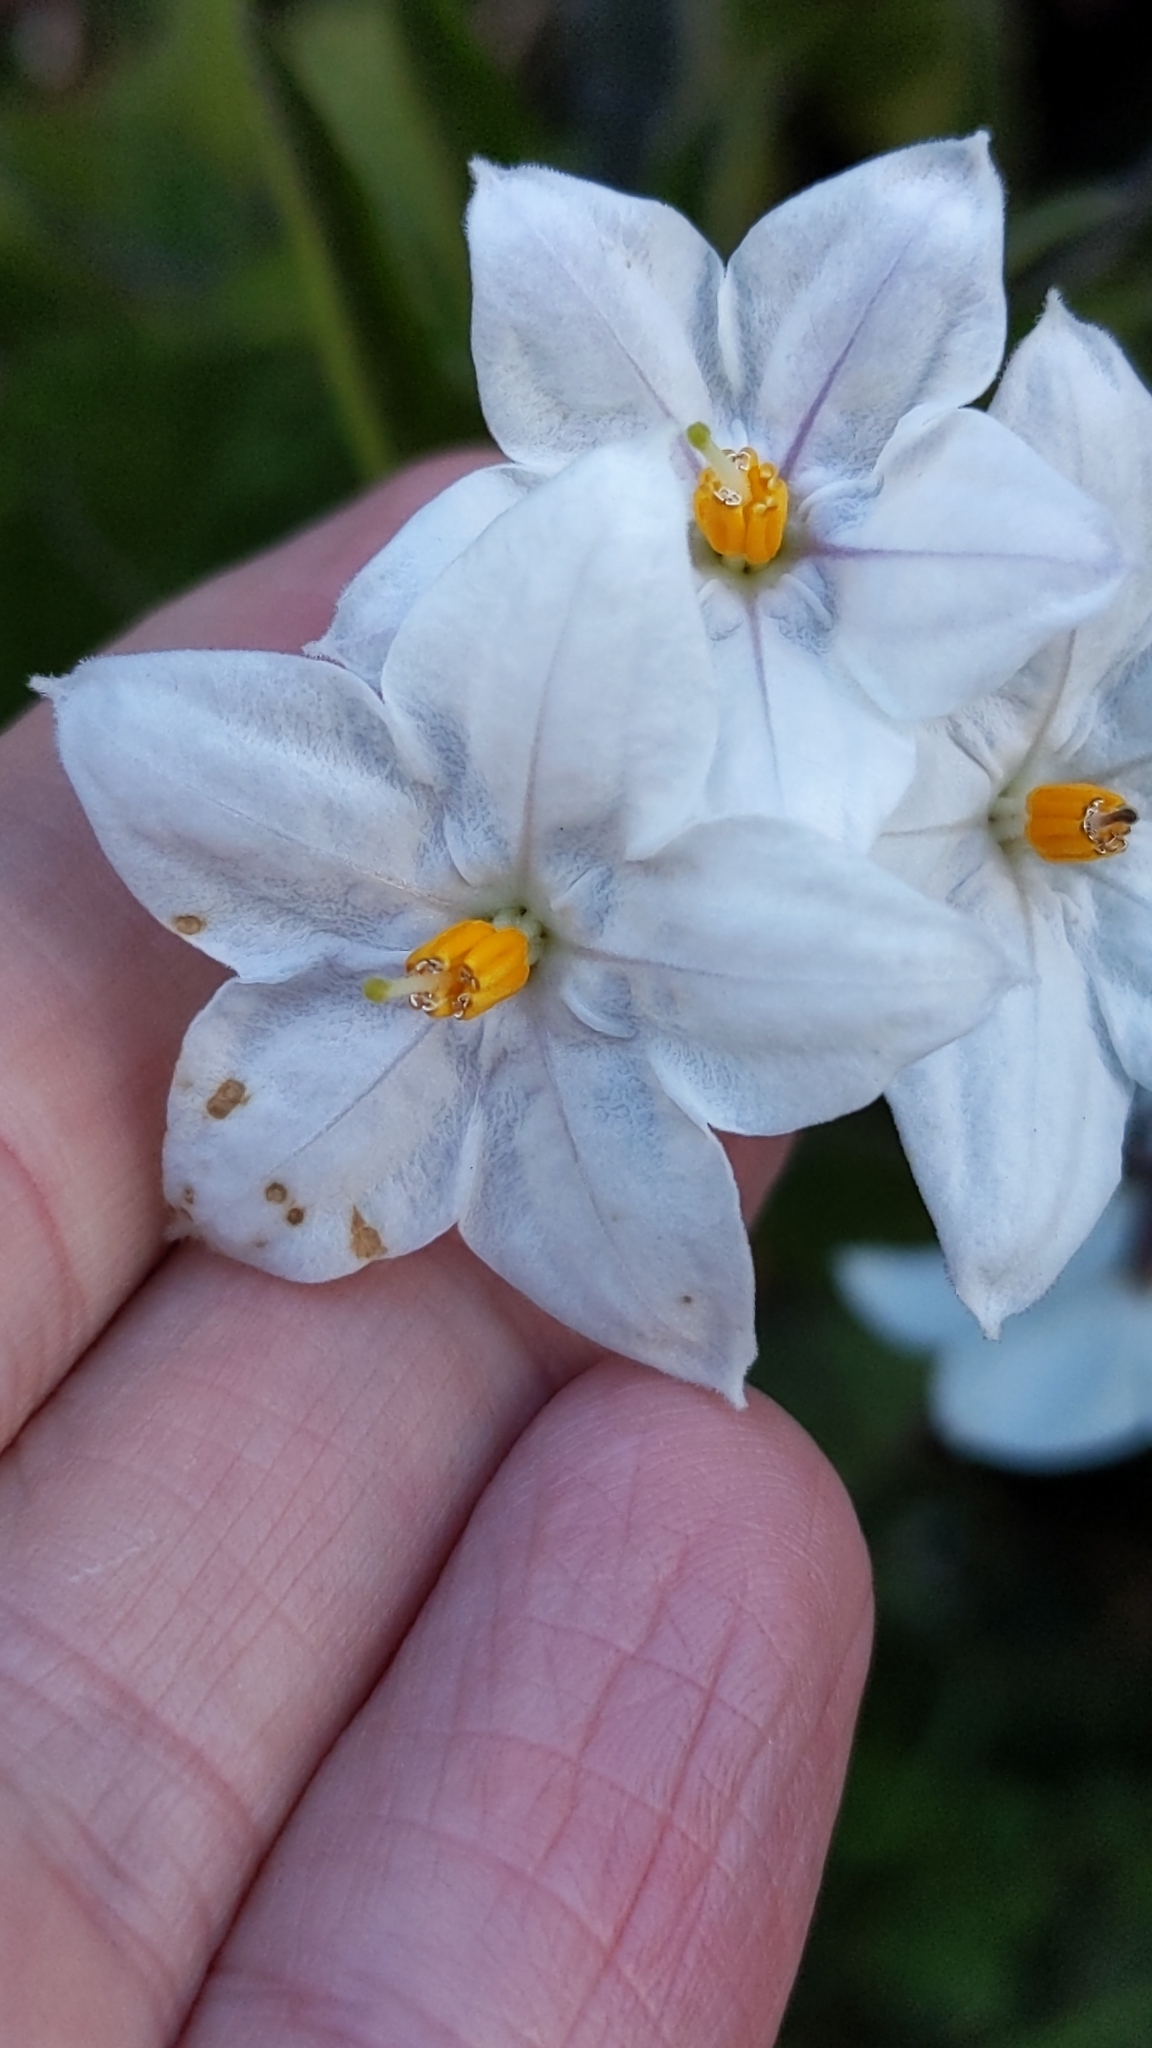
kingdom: Plantae
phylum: Tracheophyta
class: Magnoliopsida
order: Solanales
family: Solanaceae
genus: Solanum
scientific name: Solanum laxum
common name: Nightshade
